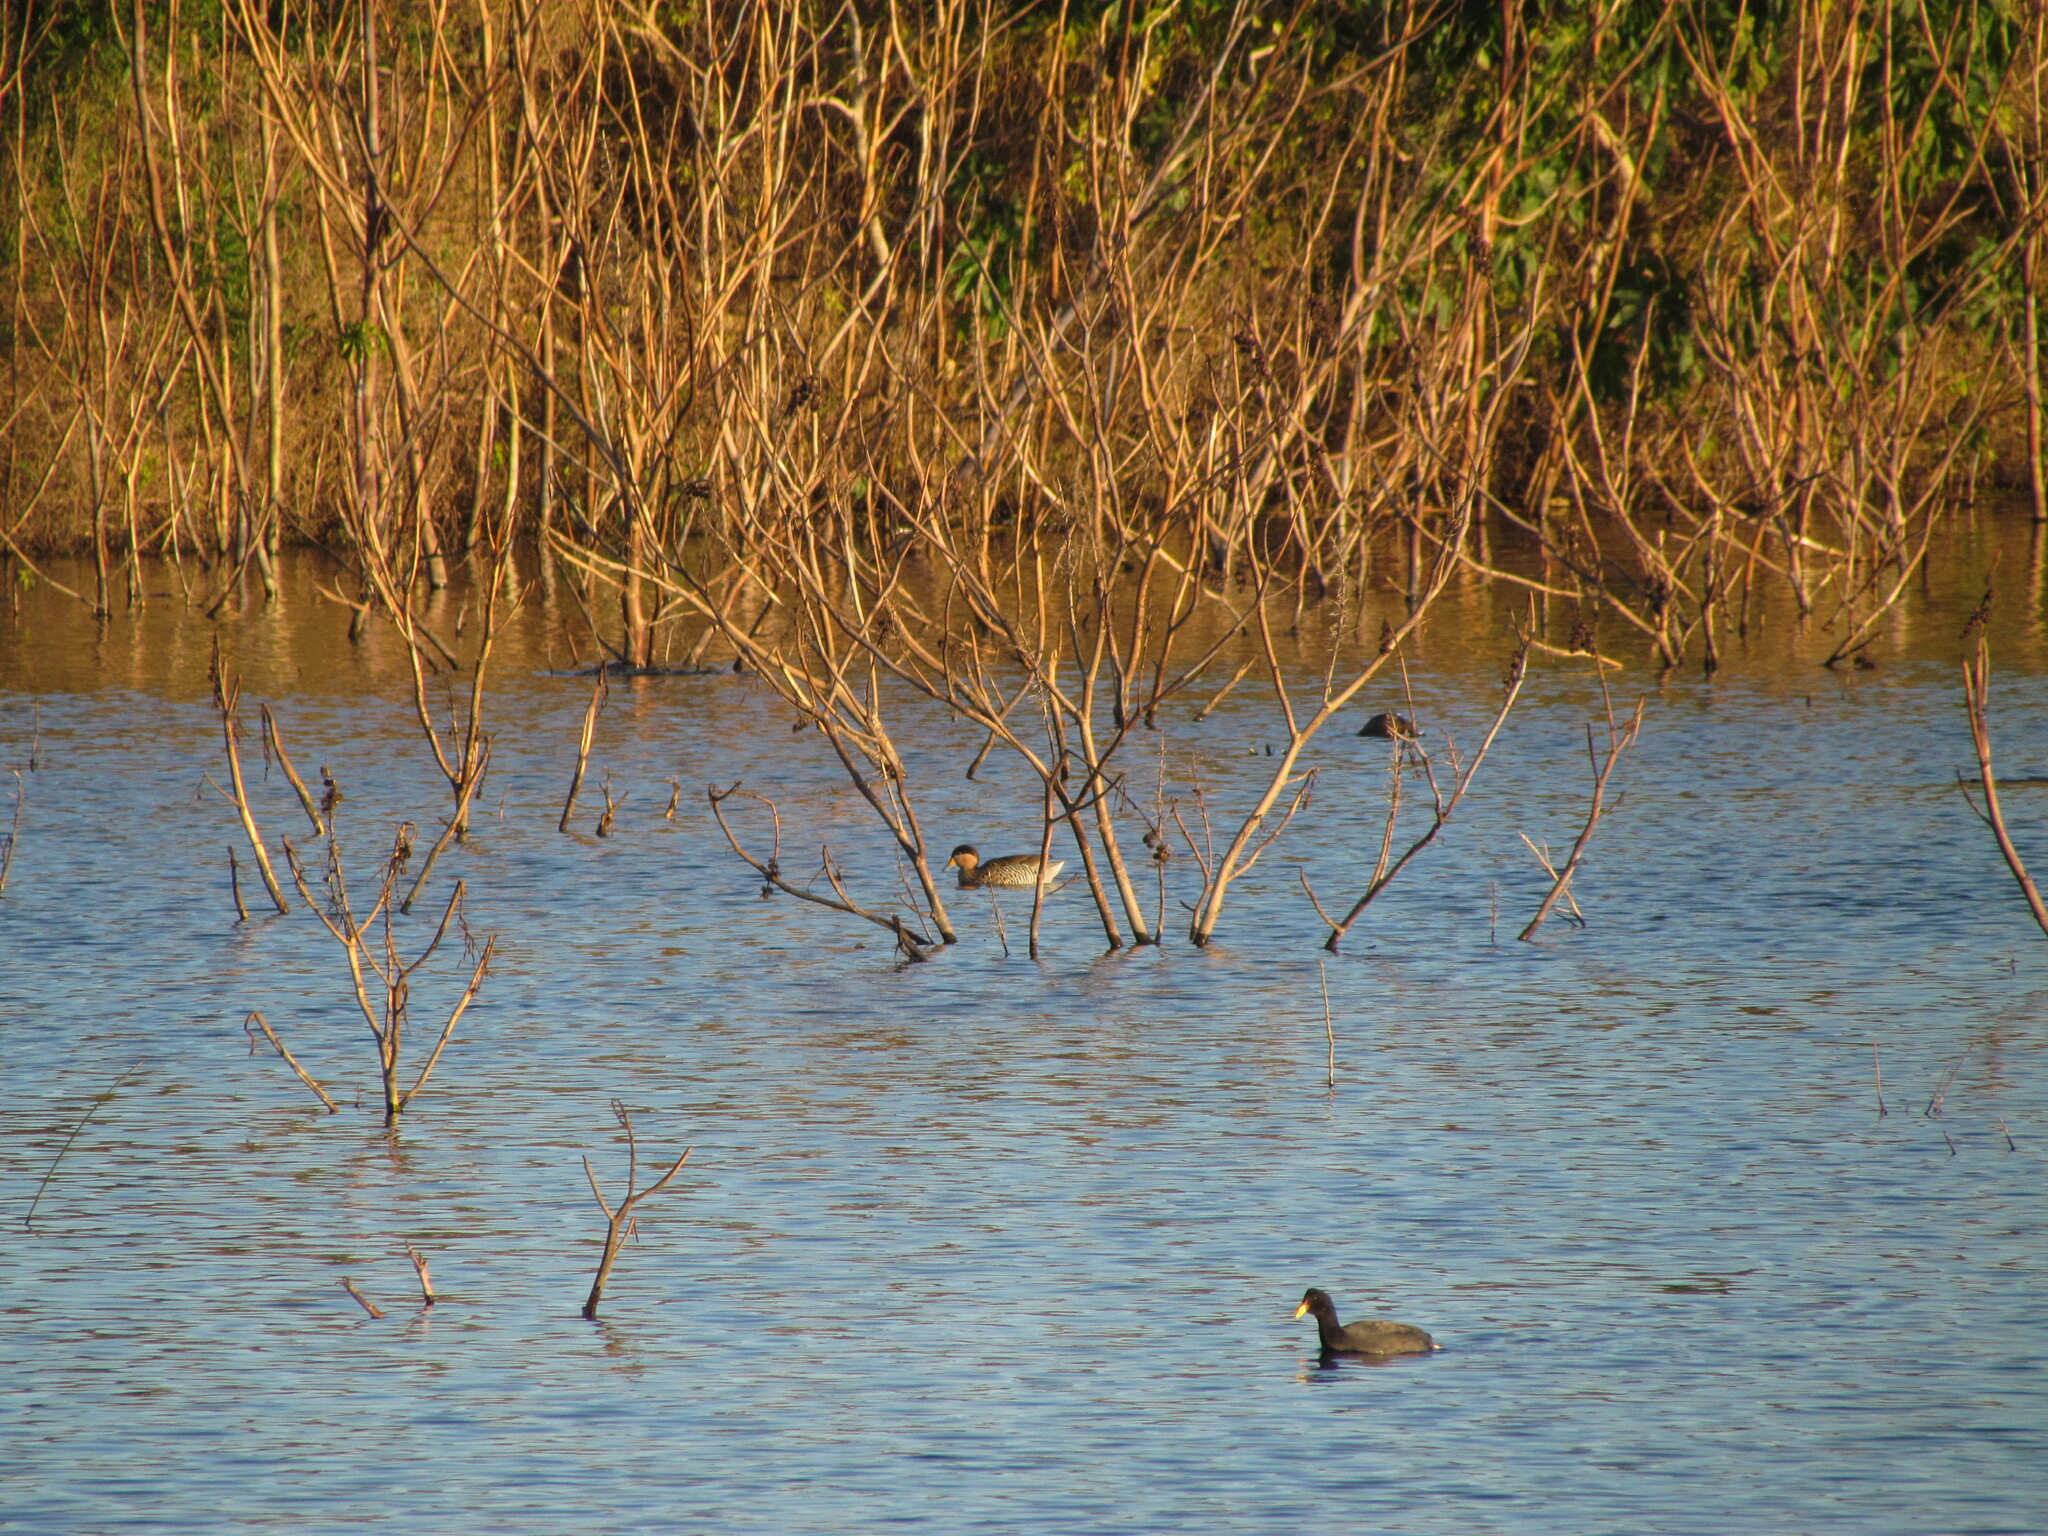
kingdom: Animalia
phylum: Chordata
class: Aves
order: Anseriformes
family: Anatidae
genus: Spatula
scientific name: Spatula versicolor
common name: Silver teal
